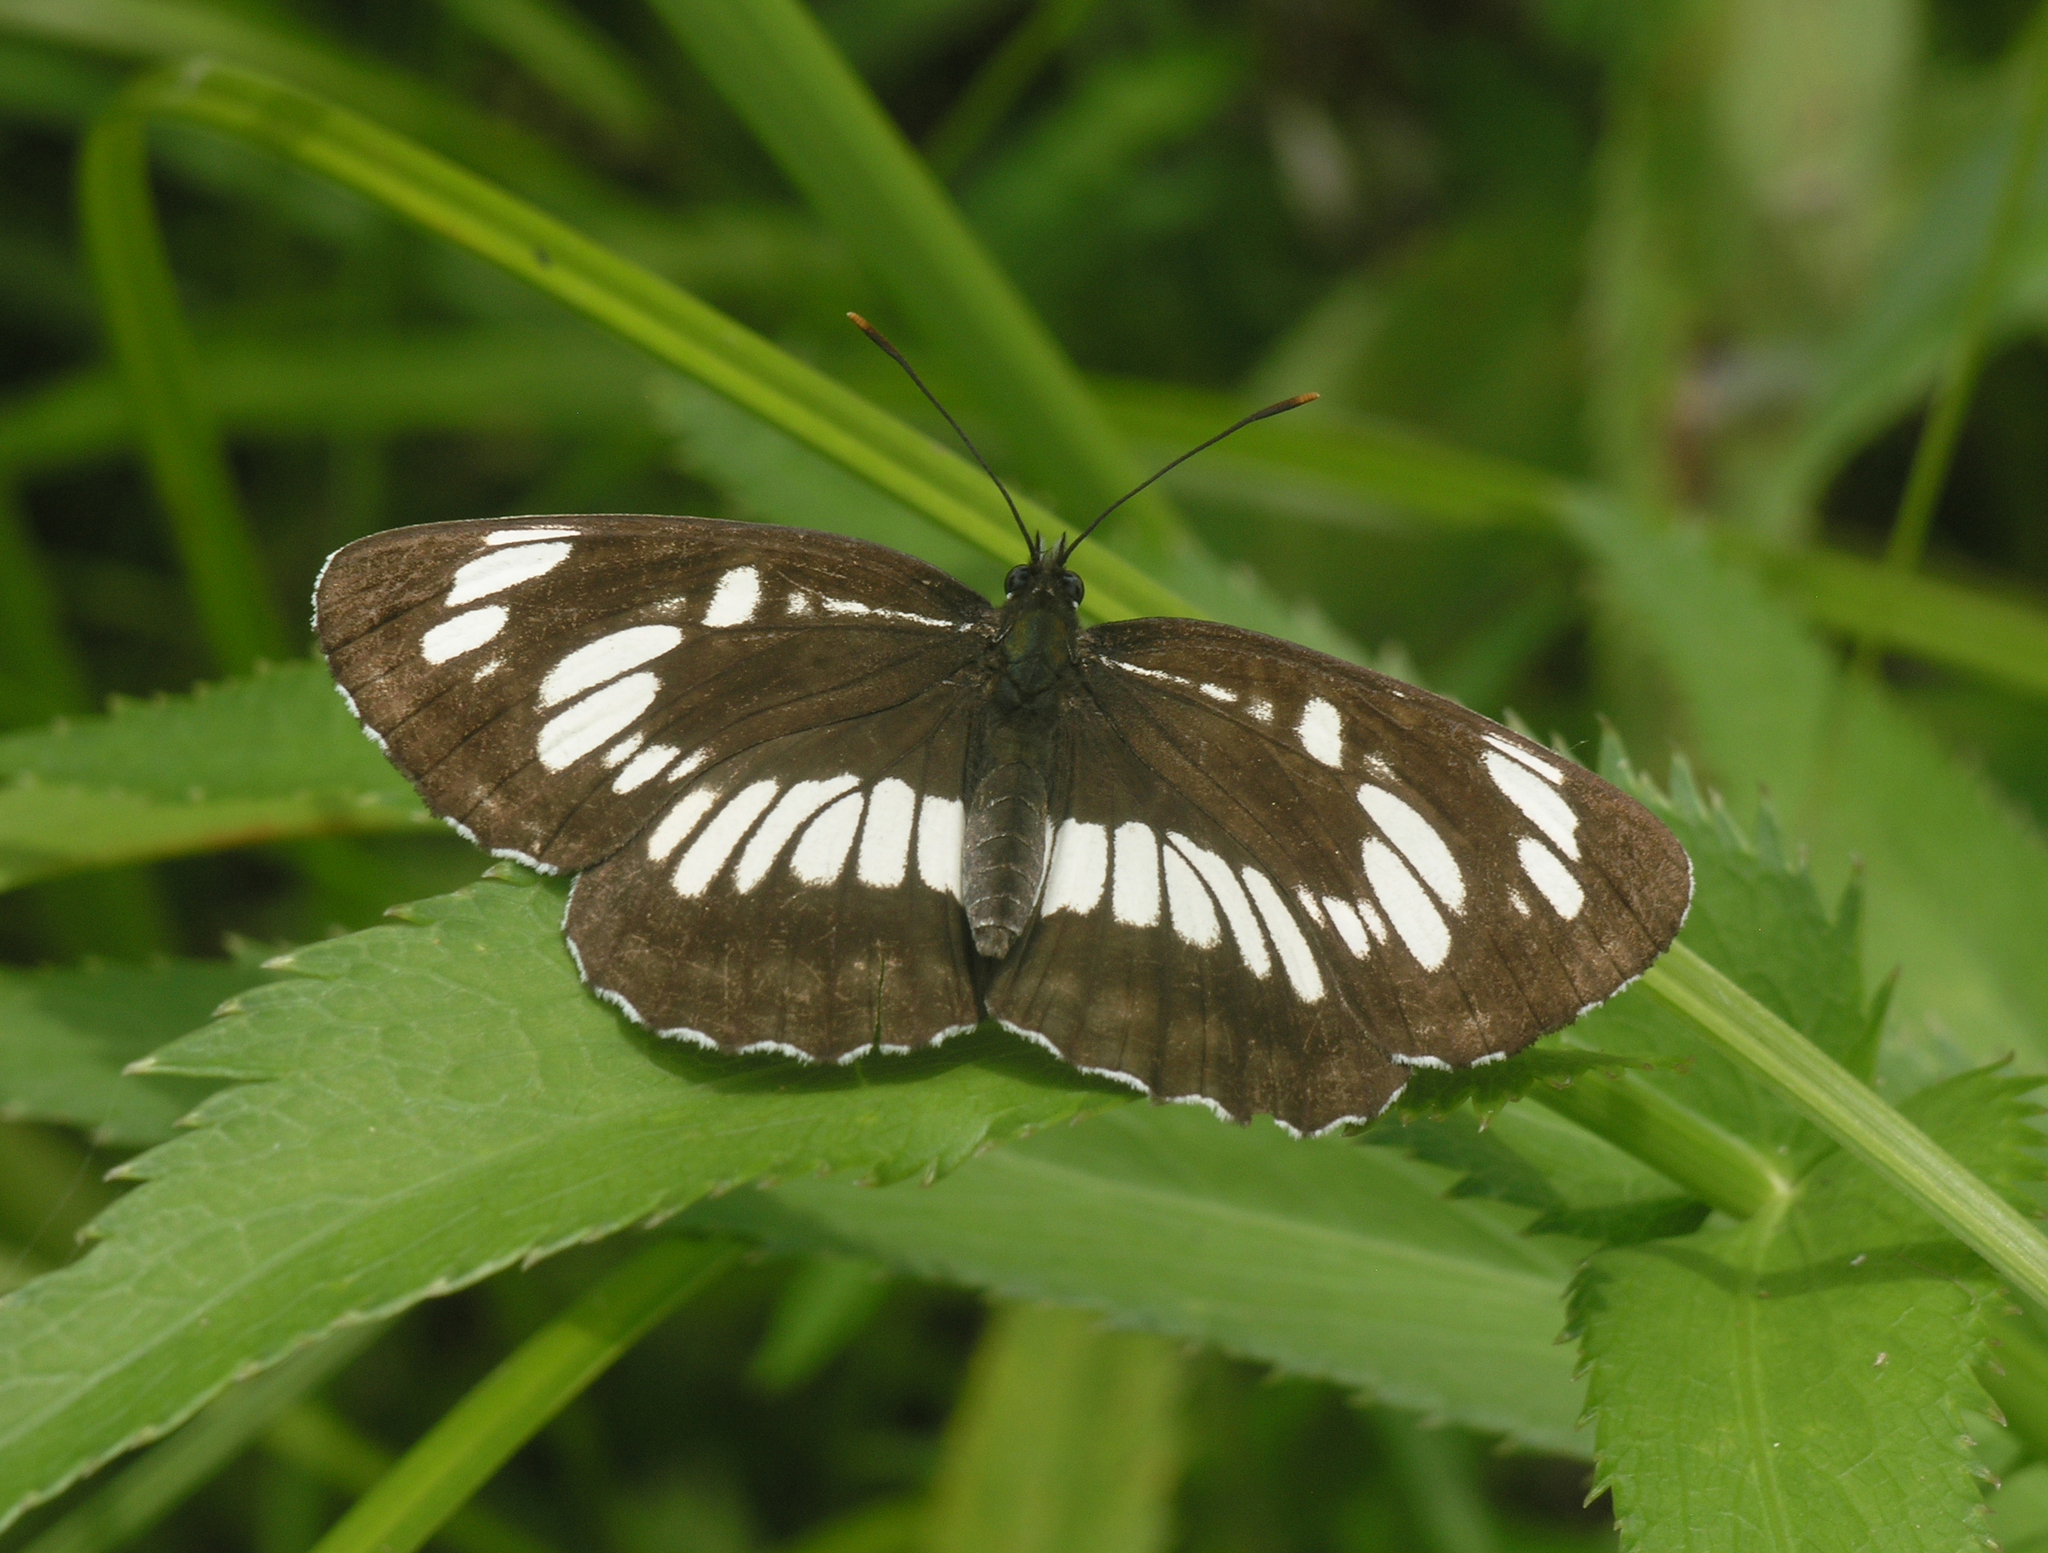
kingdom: Animalia
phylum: Arthropoda
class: Insecta
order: Lepidoptera
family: Nymphalidae
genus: Neptis
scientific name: Neptis rivularis
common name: Hungarian glider
